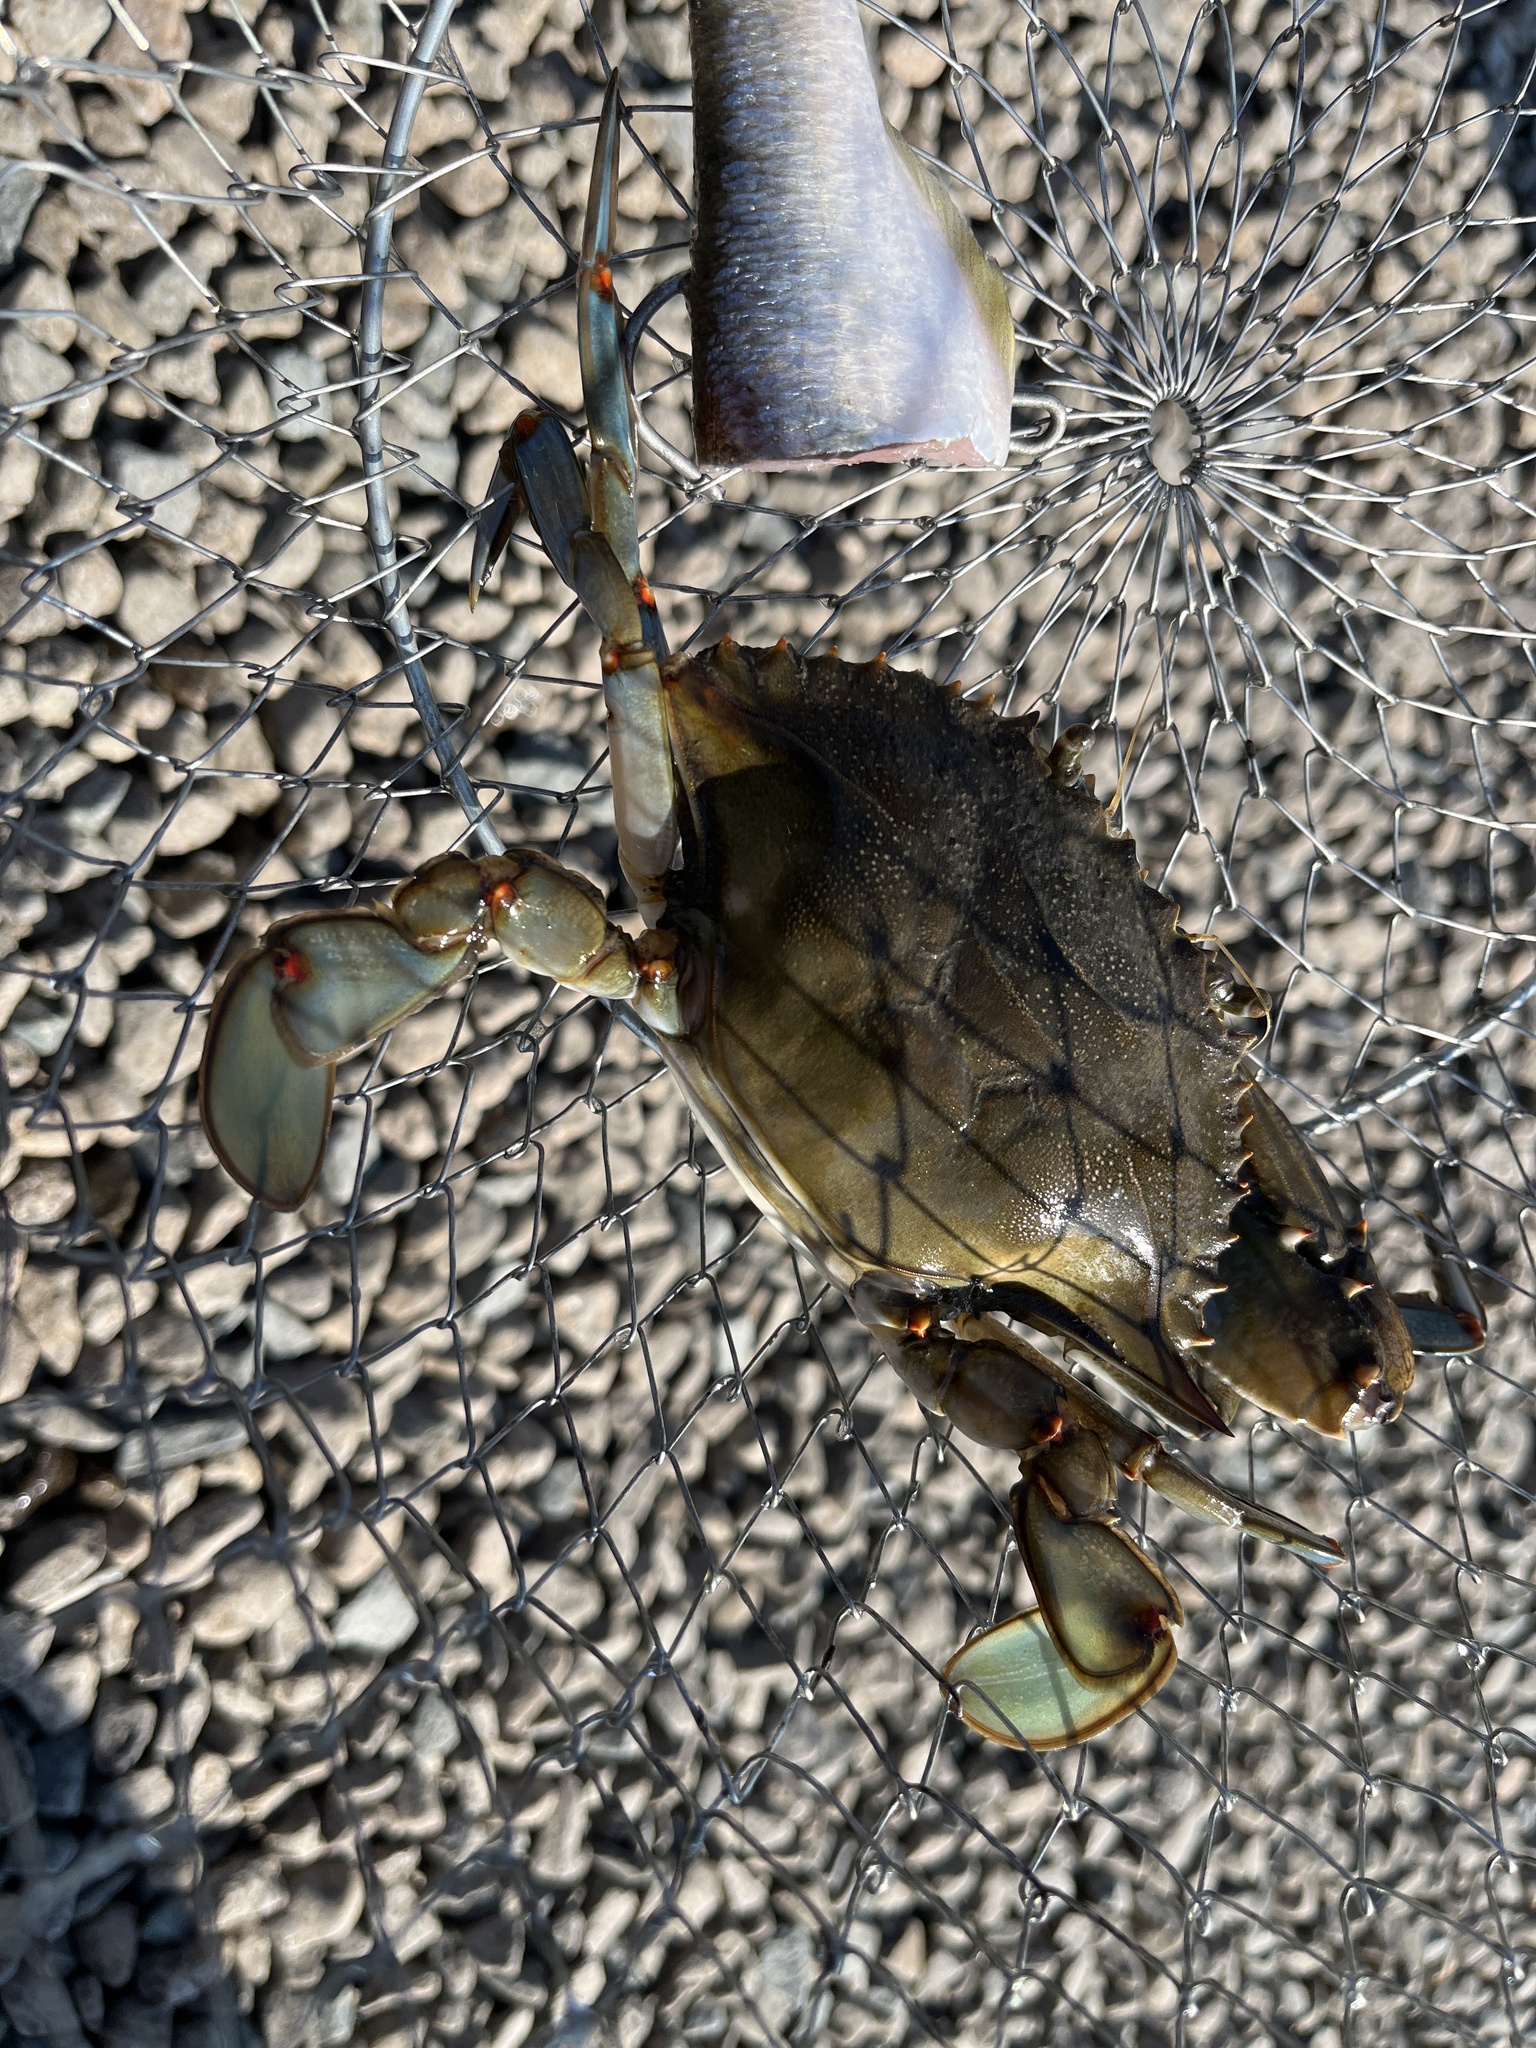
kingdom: Animalia
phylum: Arthropoda
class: Malacostraca
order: Decapoda
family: Portunidae
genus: Callinectes
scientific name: Callinectes sapidus
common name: Blue crab
